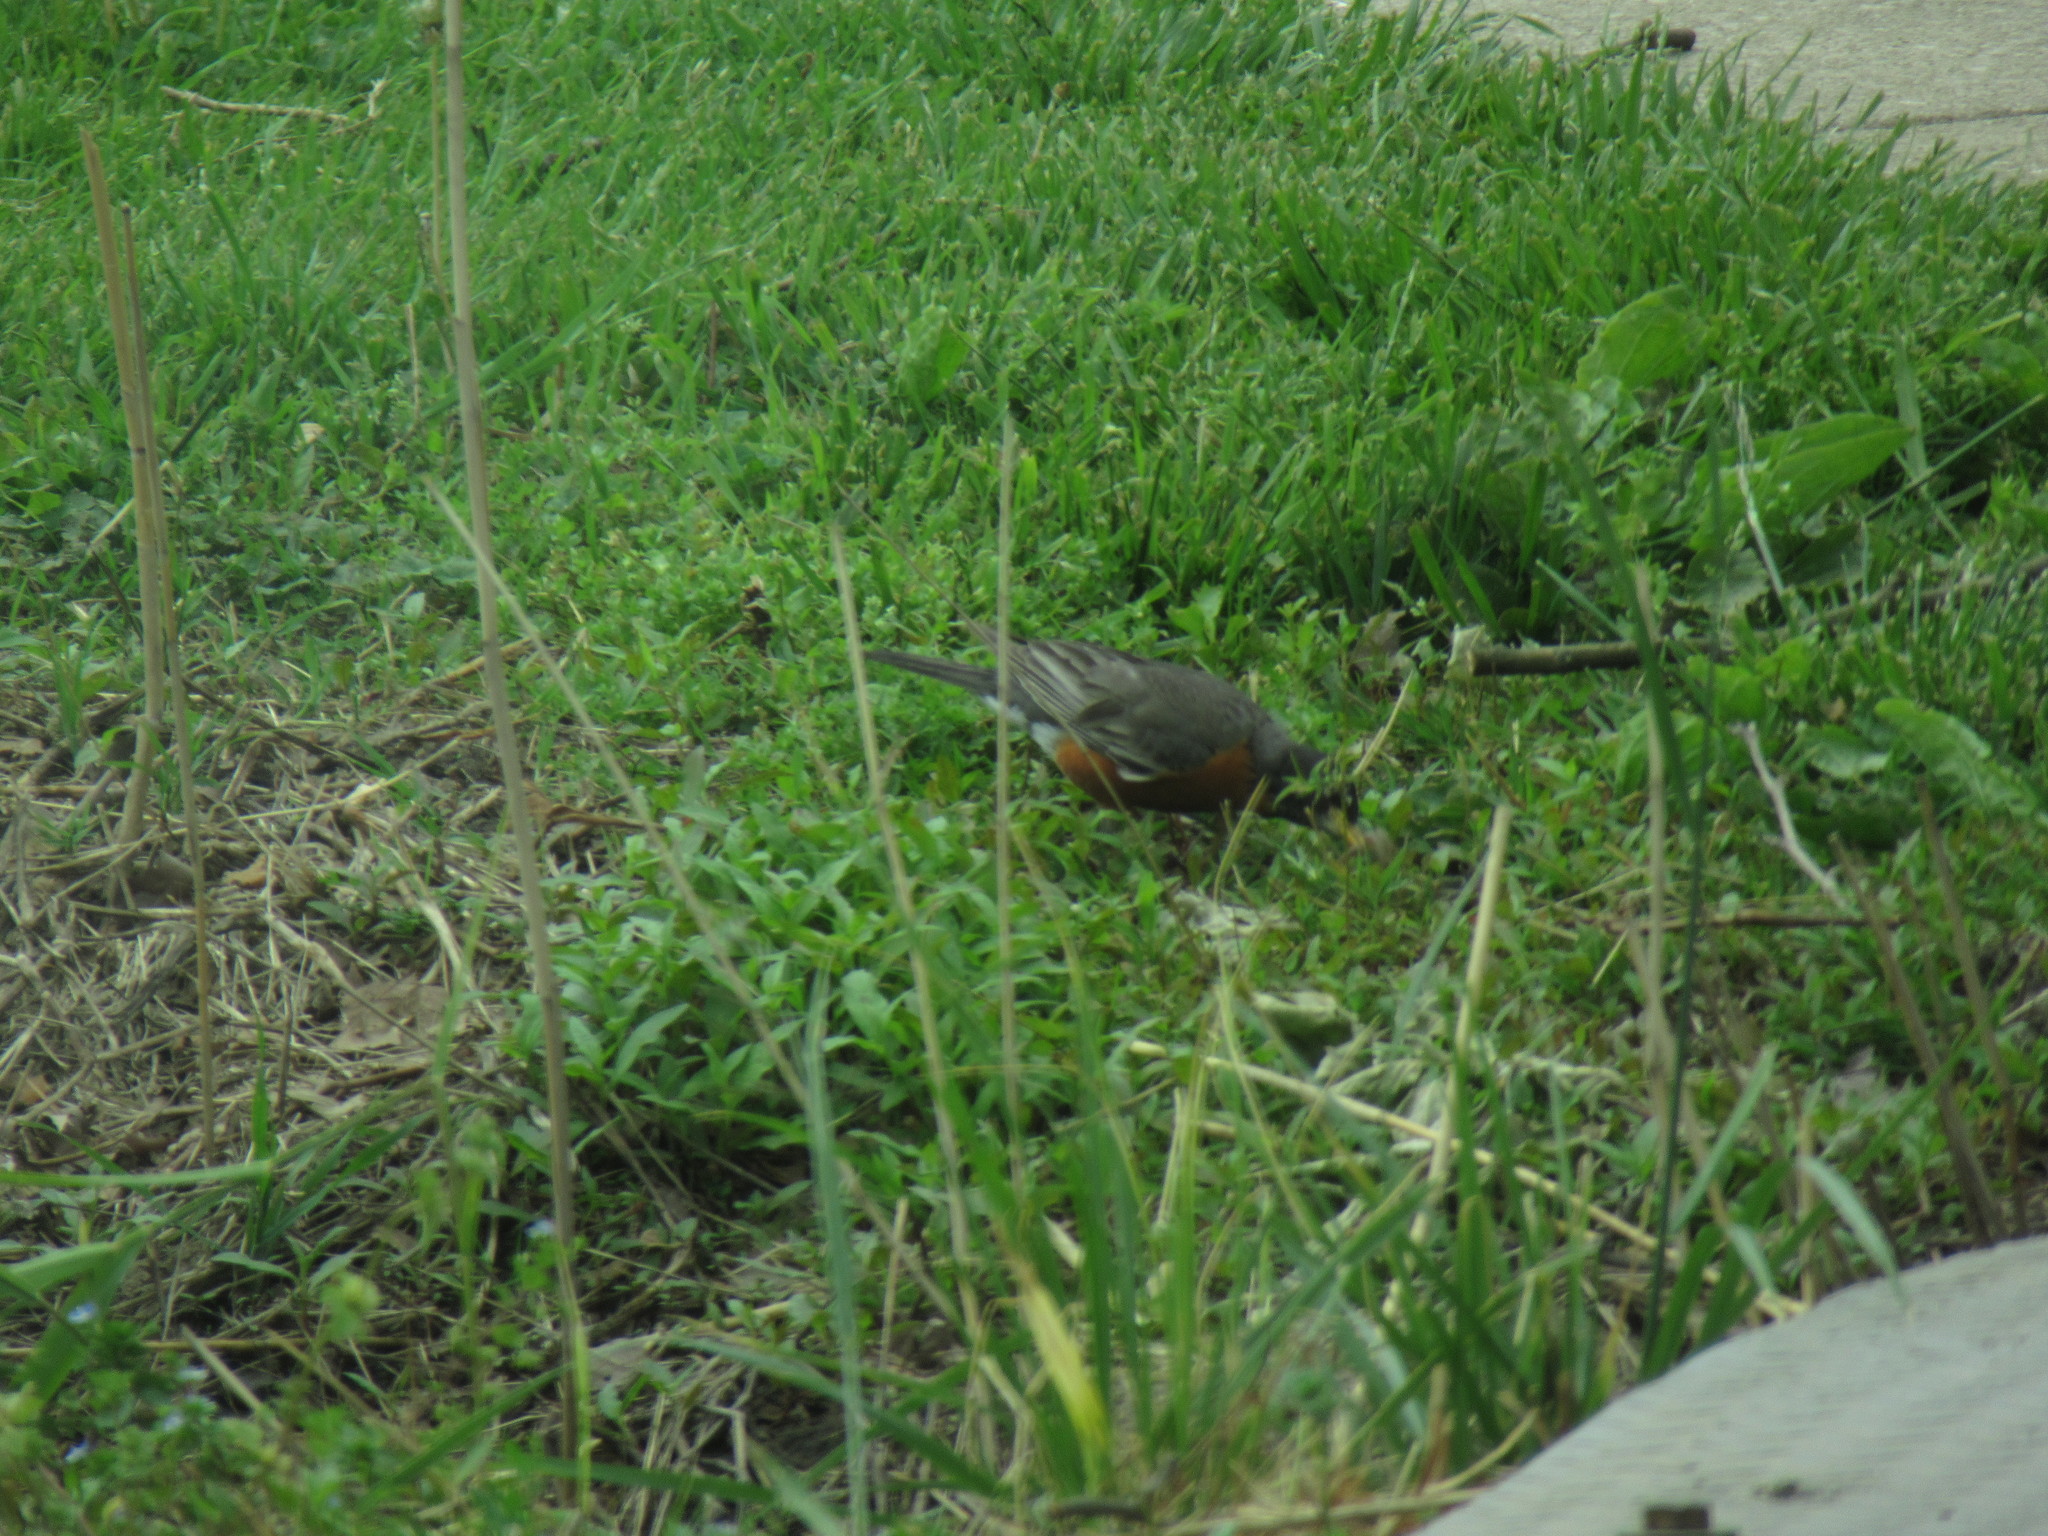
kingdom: Animalia
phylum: Chordata
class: Aves
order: Passeriformes
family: Turdidae
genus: Turdus
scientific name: Turdus migratorius
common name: American robin
